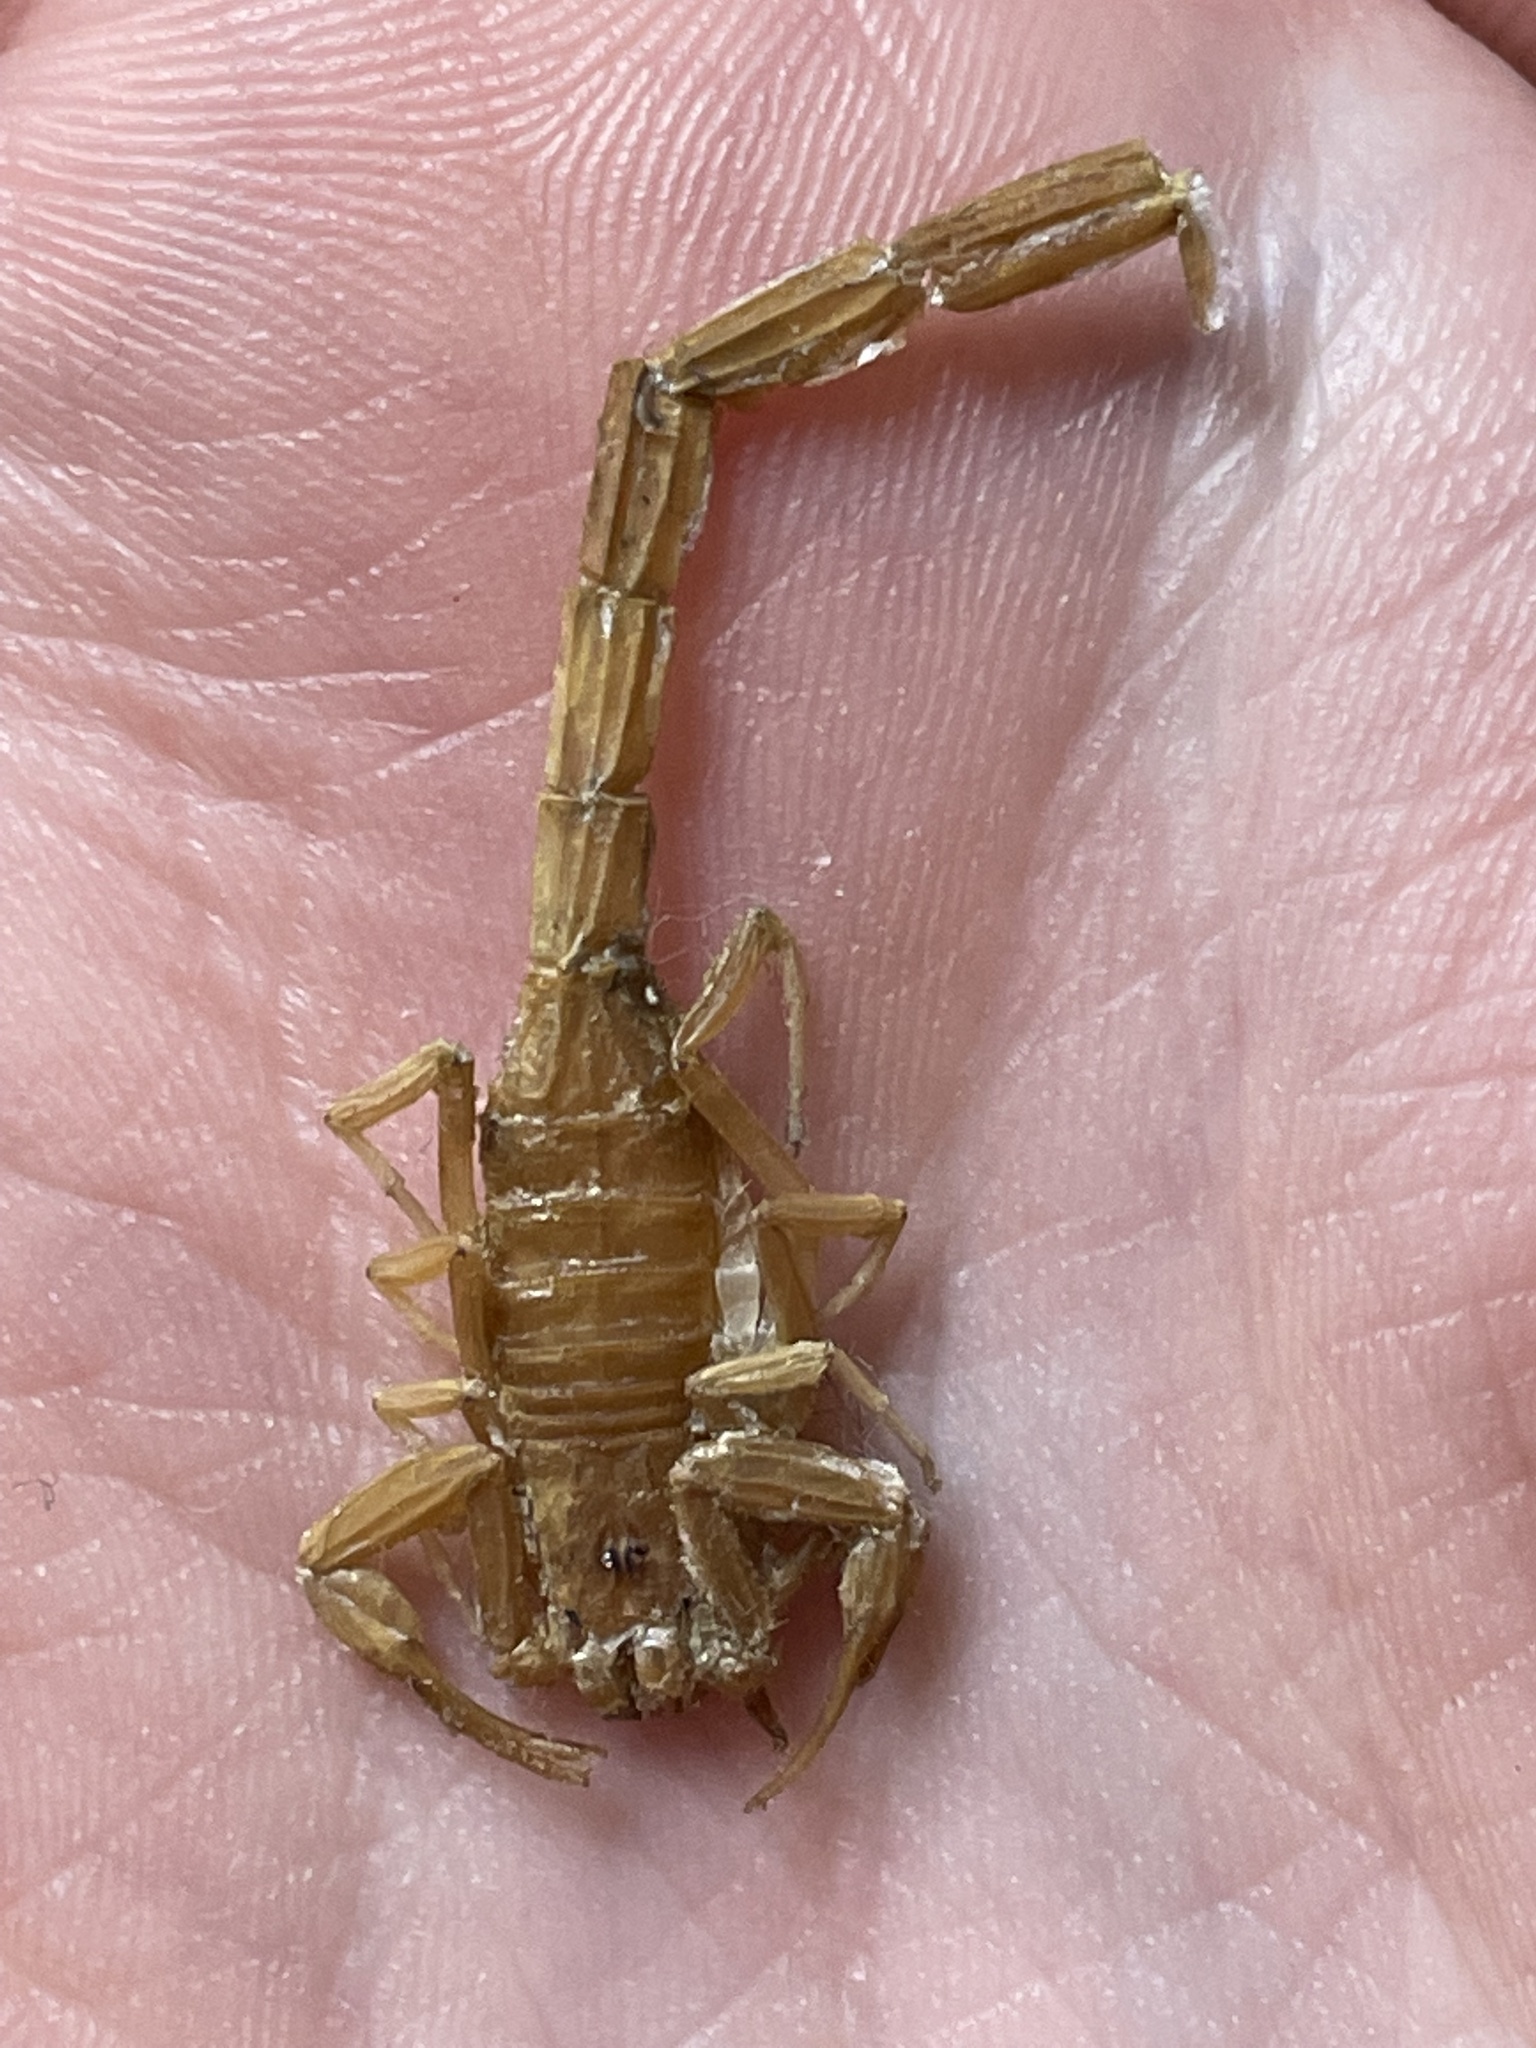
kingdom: Animalia
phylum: Arthropoda
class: Arachnida
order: Scorpiones
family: Buthidae
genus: Centruroides
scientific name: Centruroides sculpturatus
